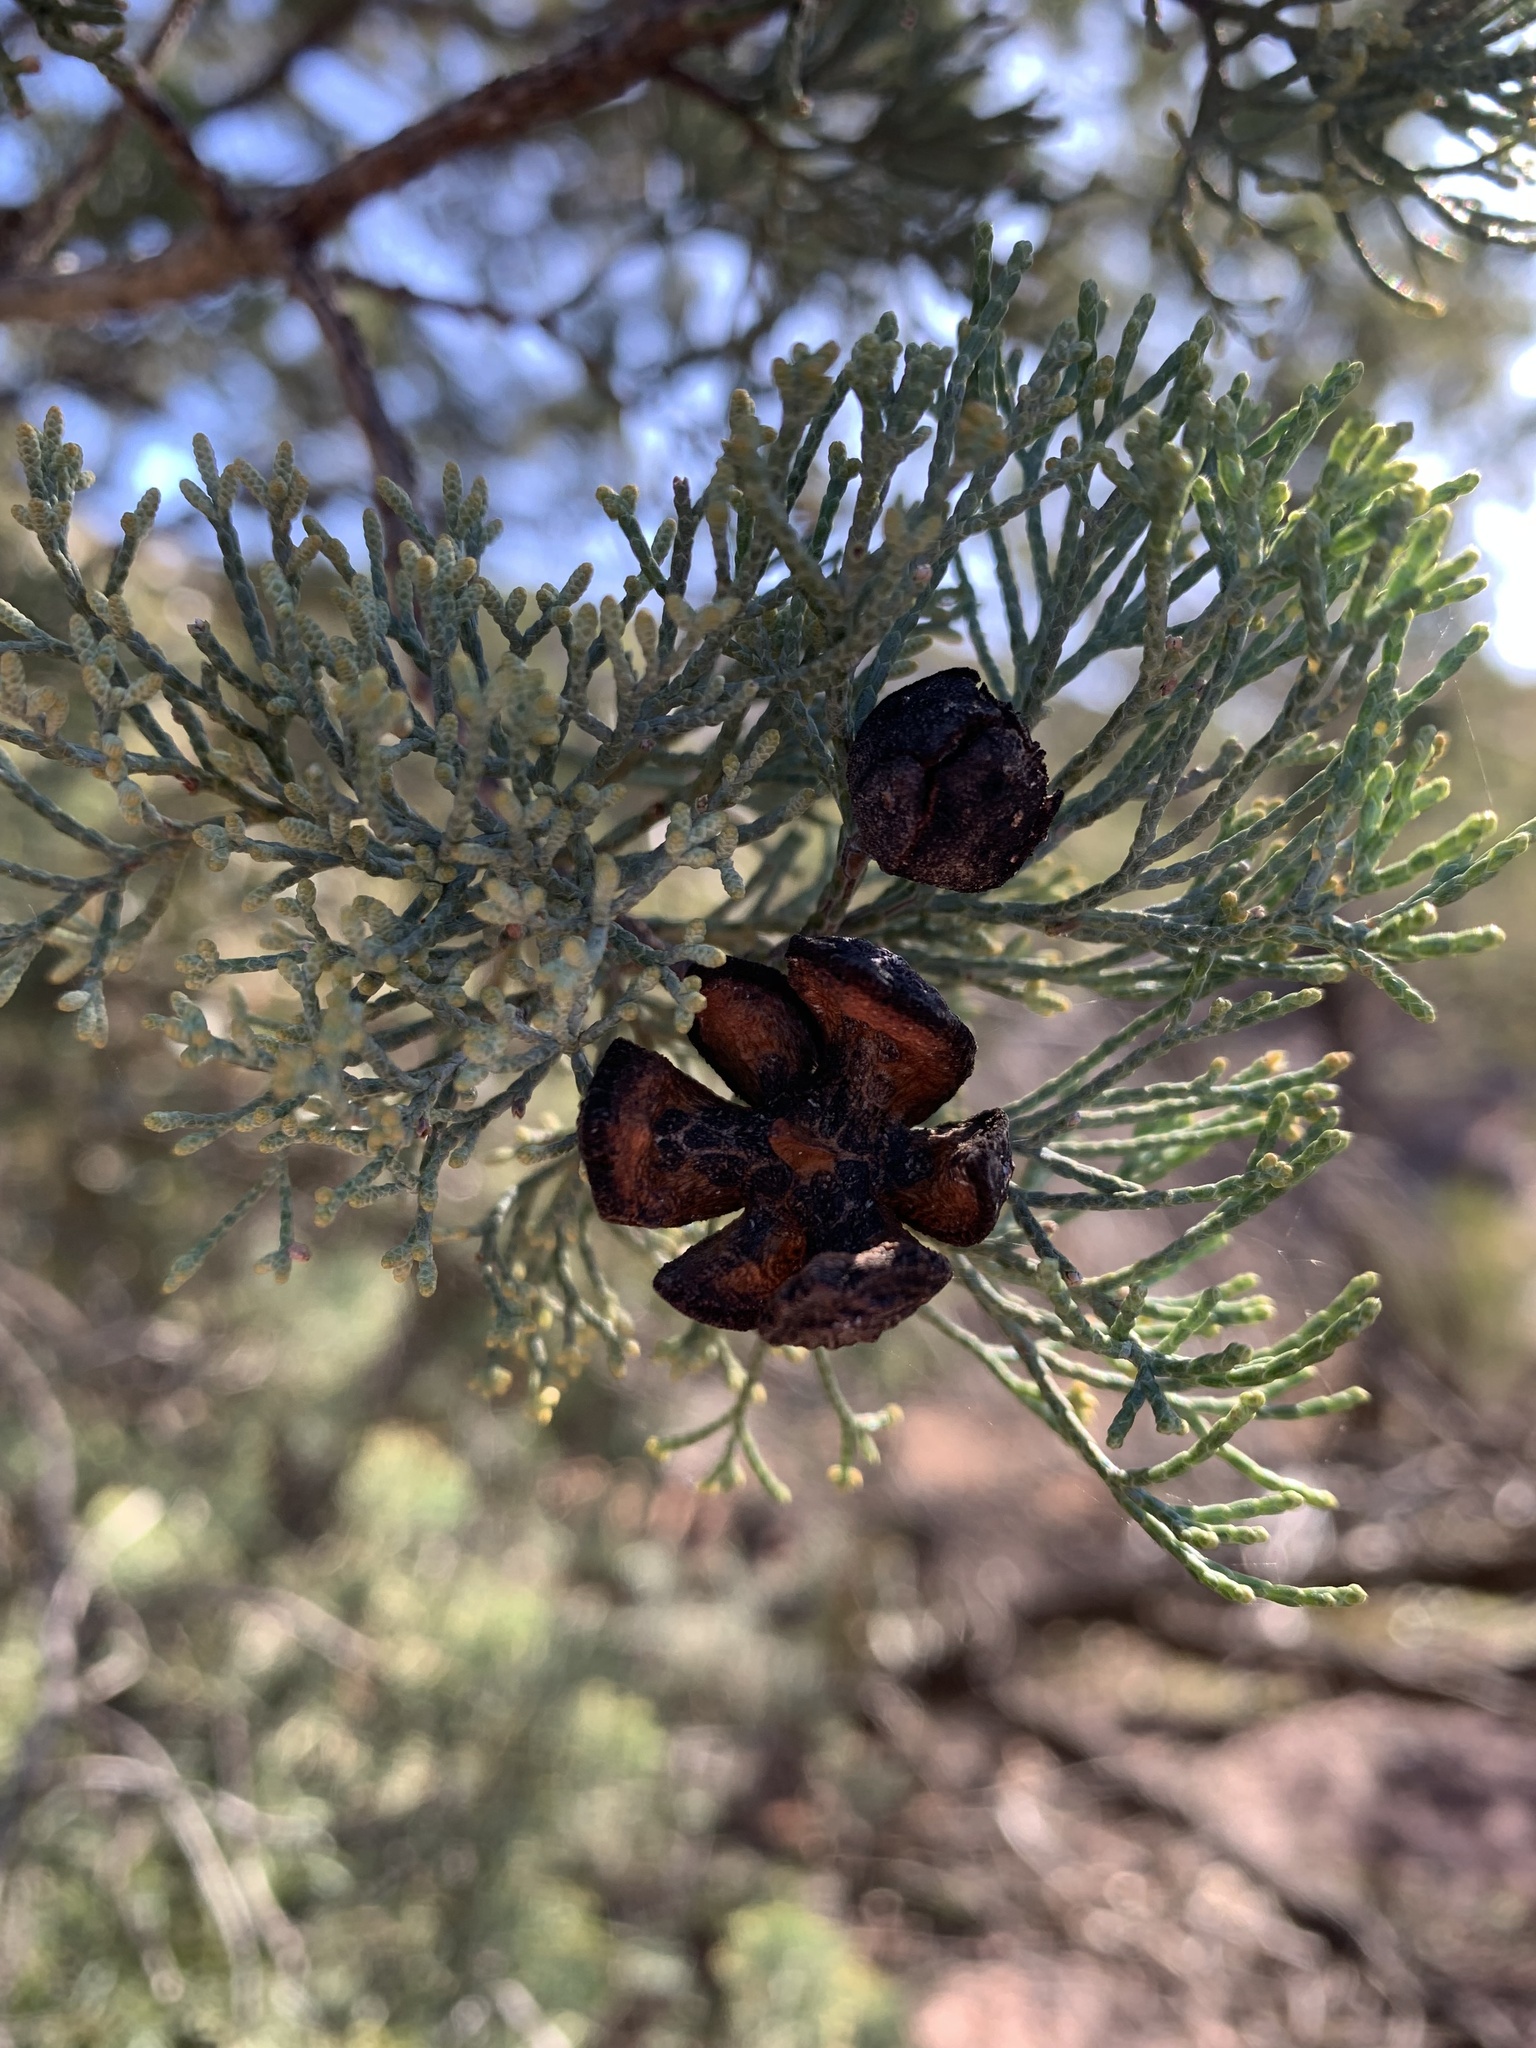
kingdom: Plantae
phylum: Tracheophyta
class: Pinopsida
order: Pinales
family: Cupressaceae
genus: Callitris
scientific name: Callitris columellaris
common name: White cypress-pine
